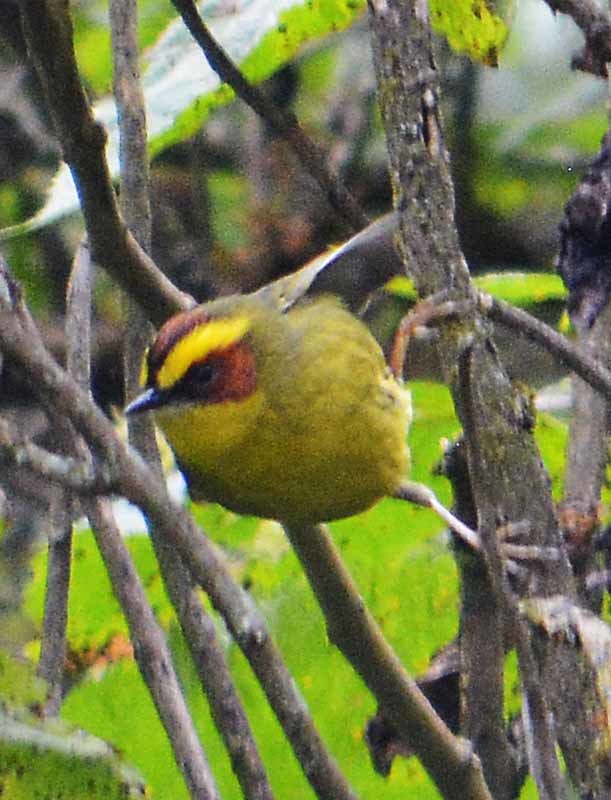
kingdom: Animalia
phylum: Chordata
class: Aves
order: Passeriformes
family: Parulidae
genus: Basileuterus
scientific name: Basileuterus belli
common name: Golden-browed warbler
